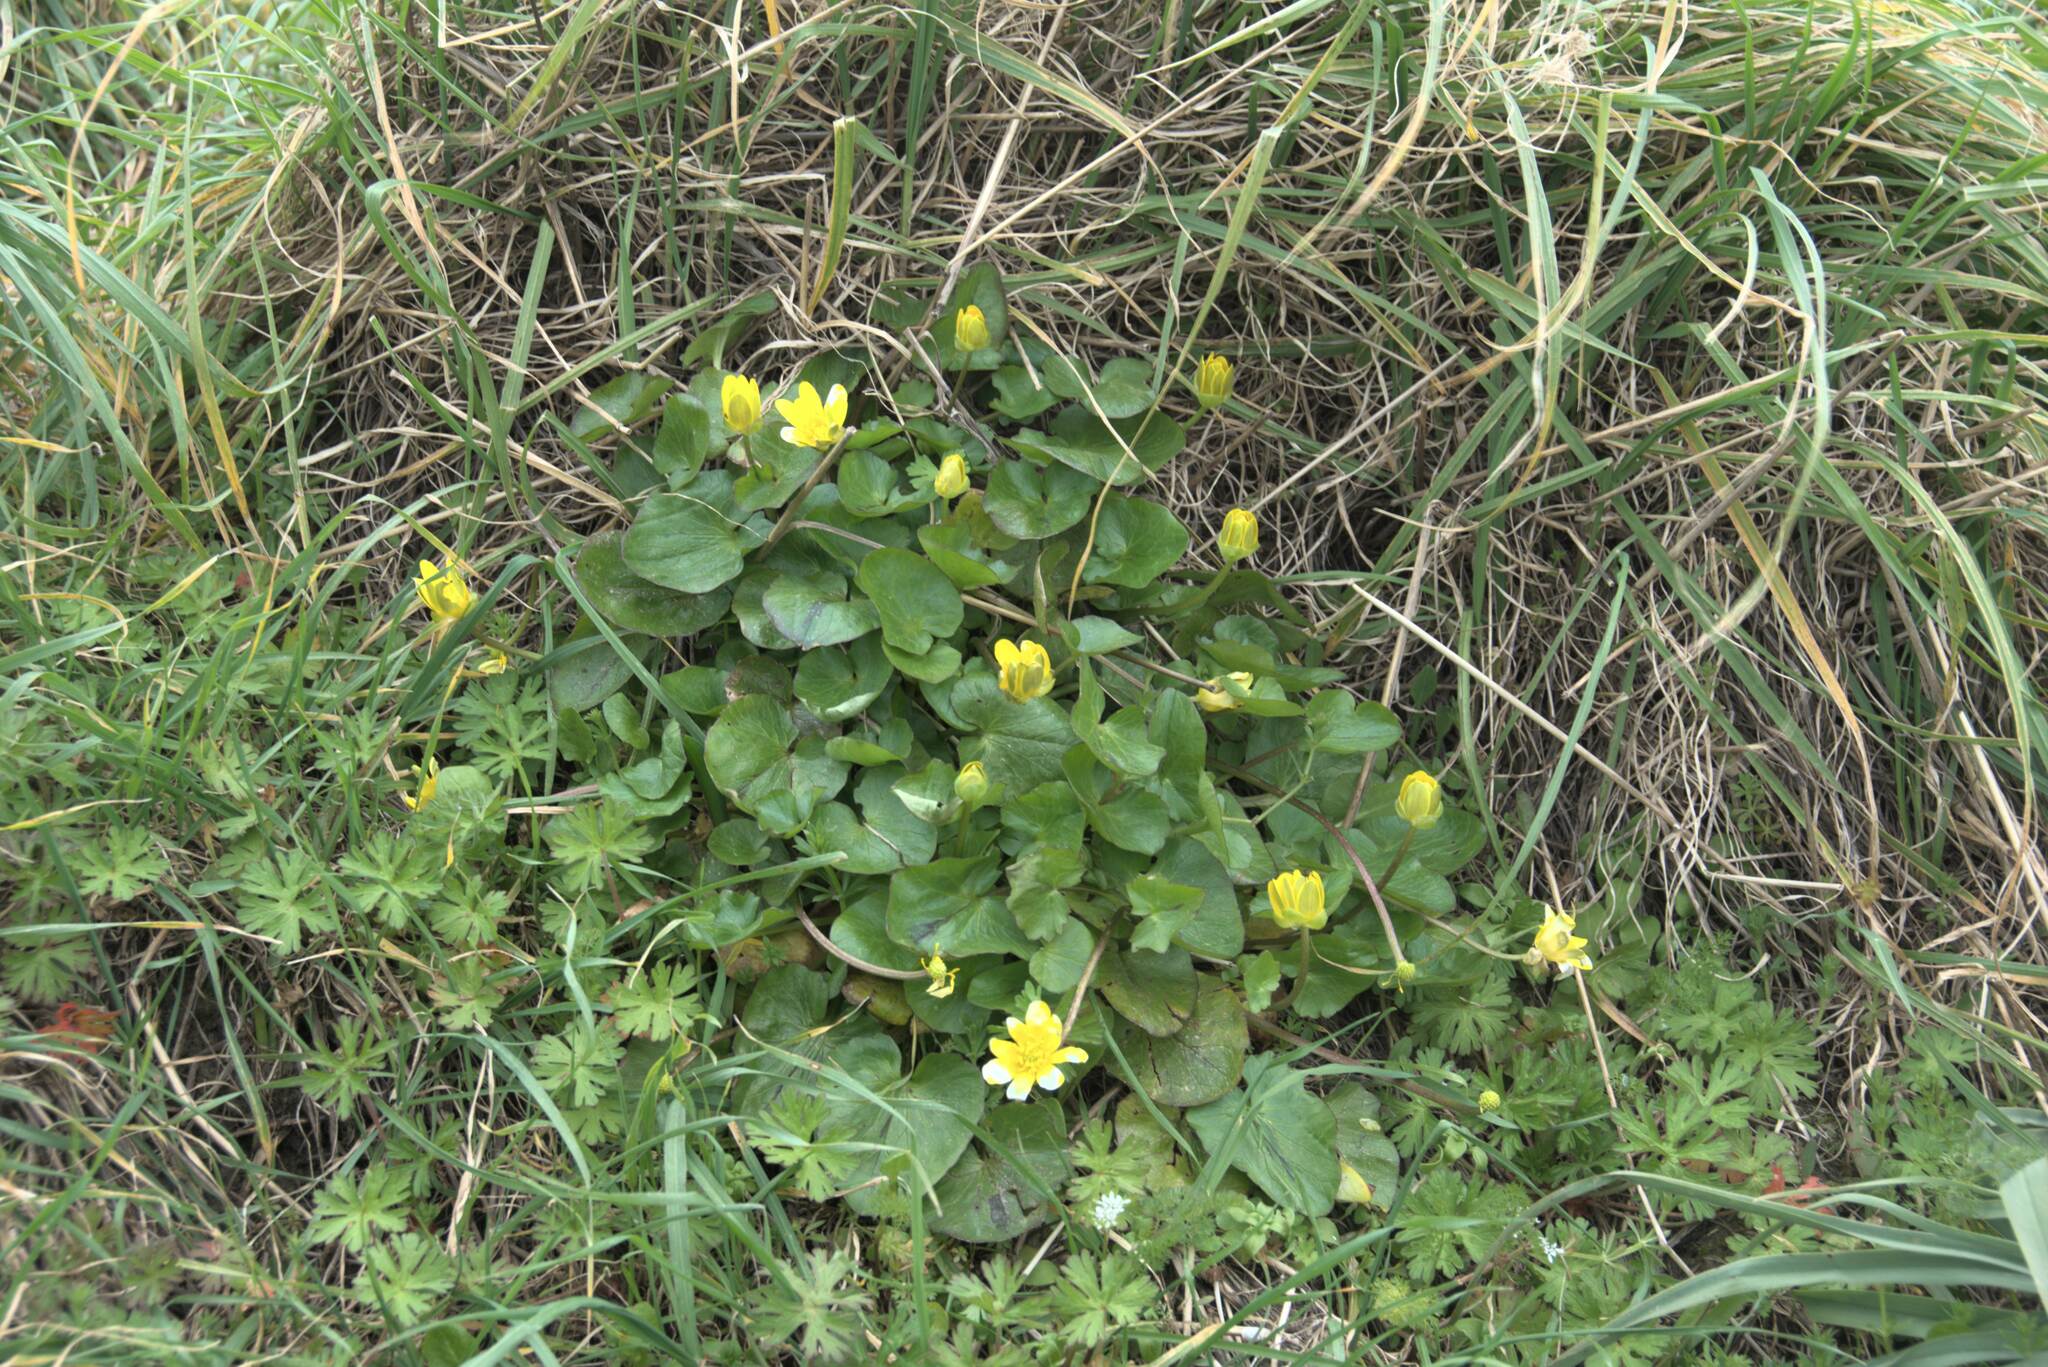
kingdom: Plantae
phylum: Tracheophyta
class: Magnoliopsida
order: Ranunculales
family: Ranunculaceae
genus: Ficaria
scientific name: Ficaria verna
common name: Lesser celandine
